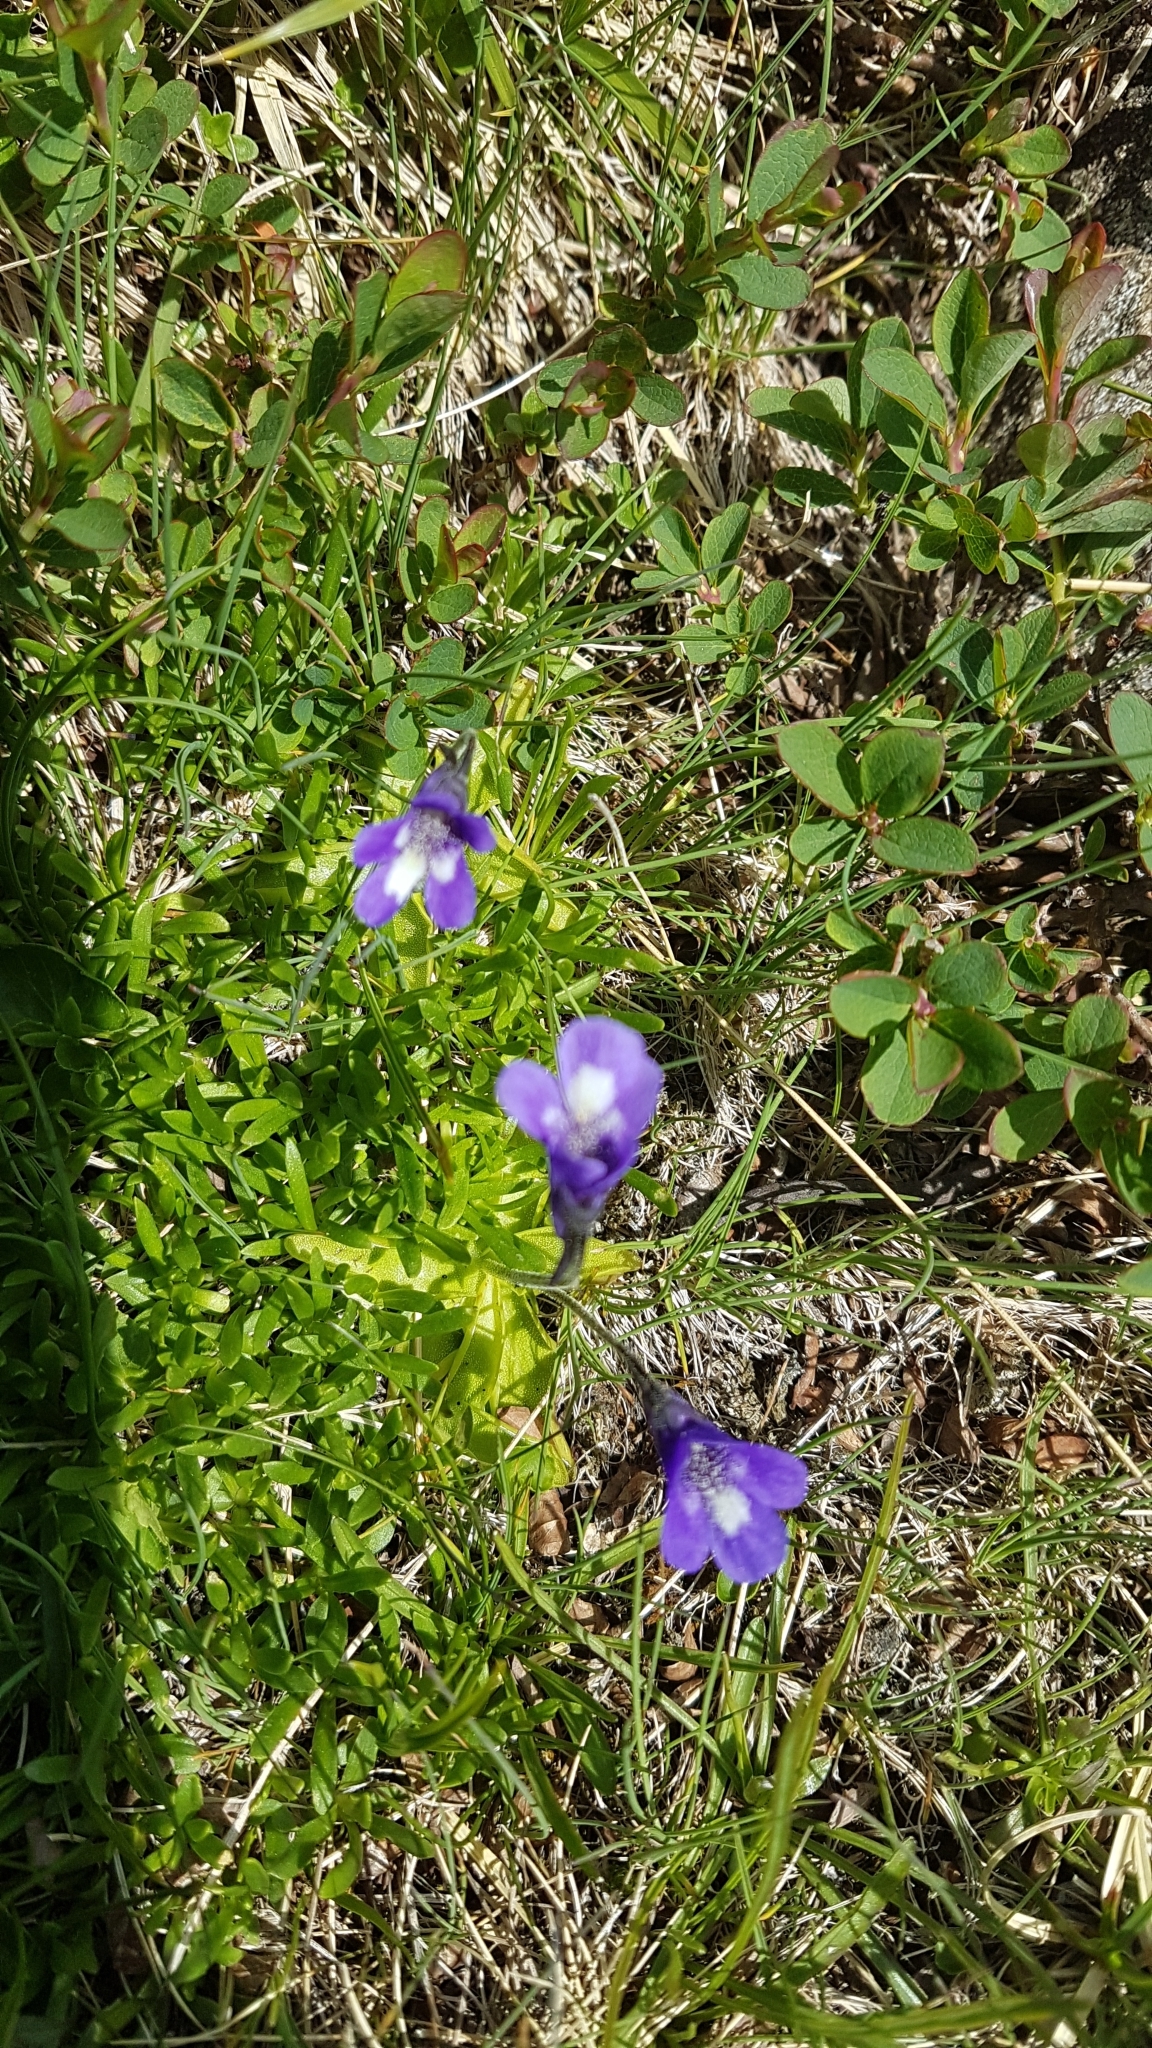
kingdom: Plantae
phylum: Tracheophyta
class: Magnoliopsida
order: Lamiales
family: Lentibulariaceae
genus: Pinguicula
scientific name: Pinguicula leptoceras
